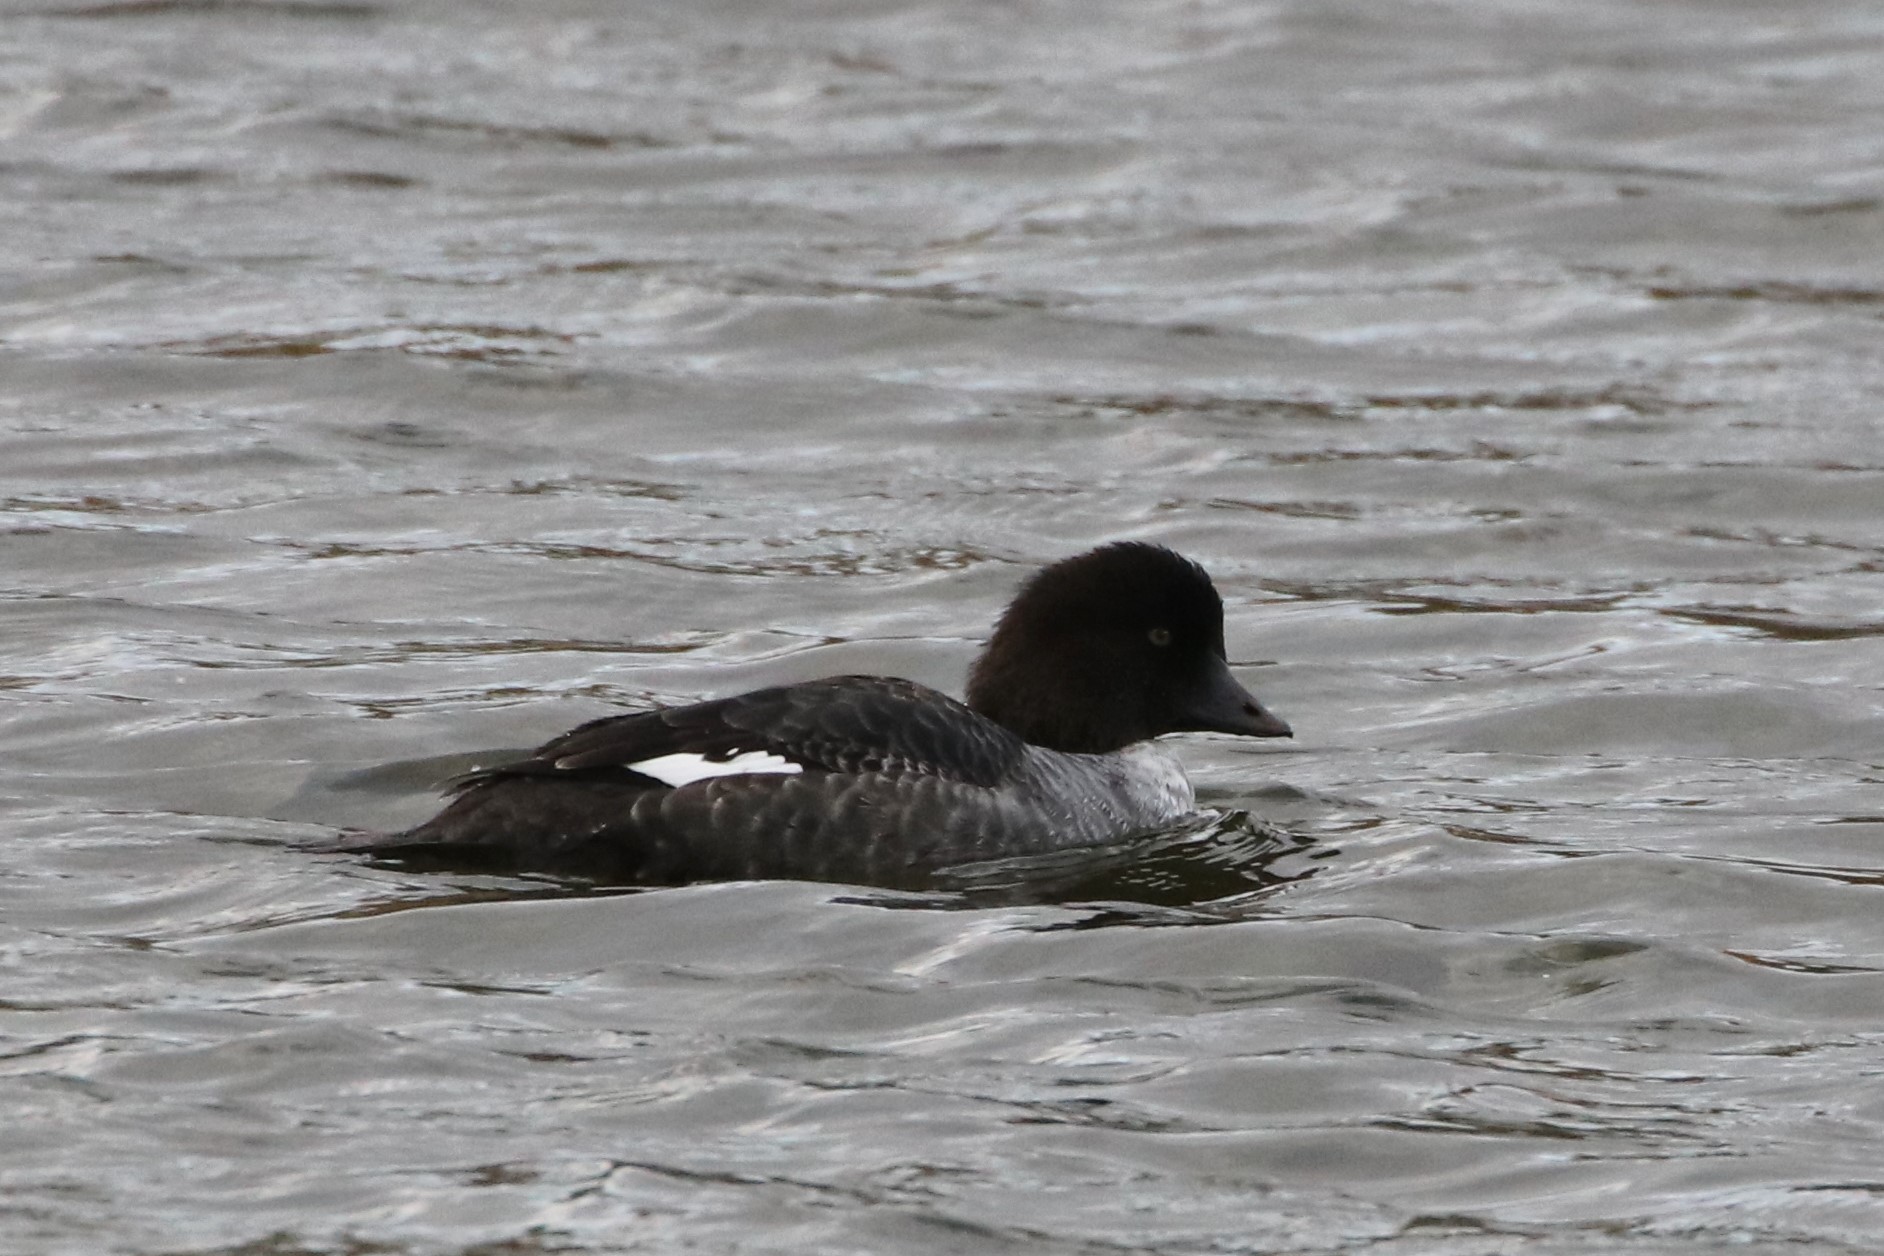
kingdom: Animalia
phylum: Chordata
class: Aves
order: Anseriformes
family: Anatidae
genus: Bucephala
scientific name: Bucephala clangula
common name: Common goldeneye
